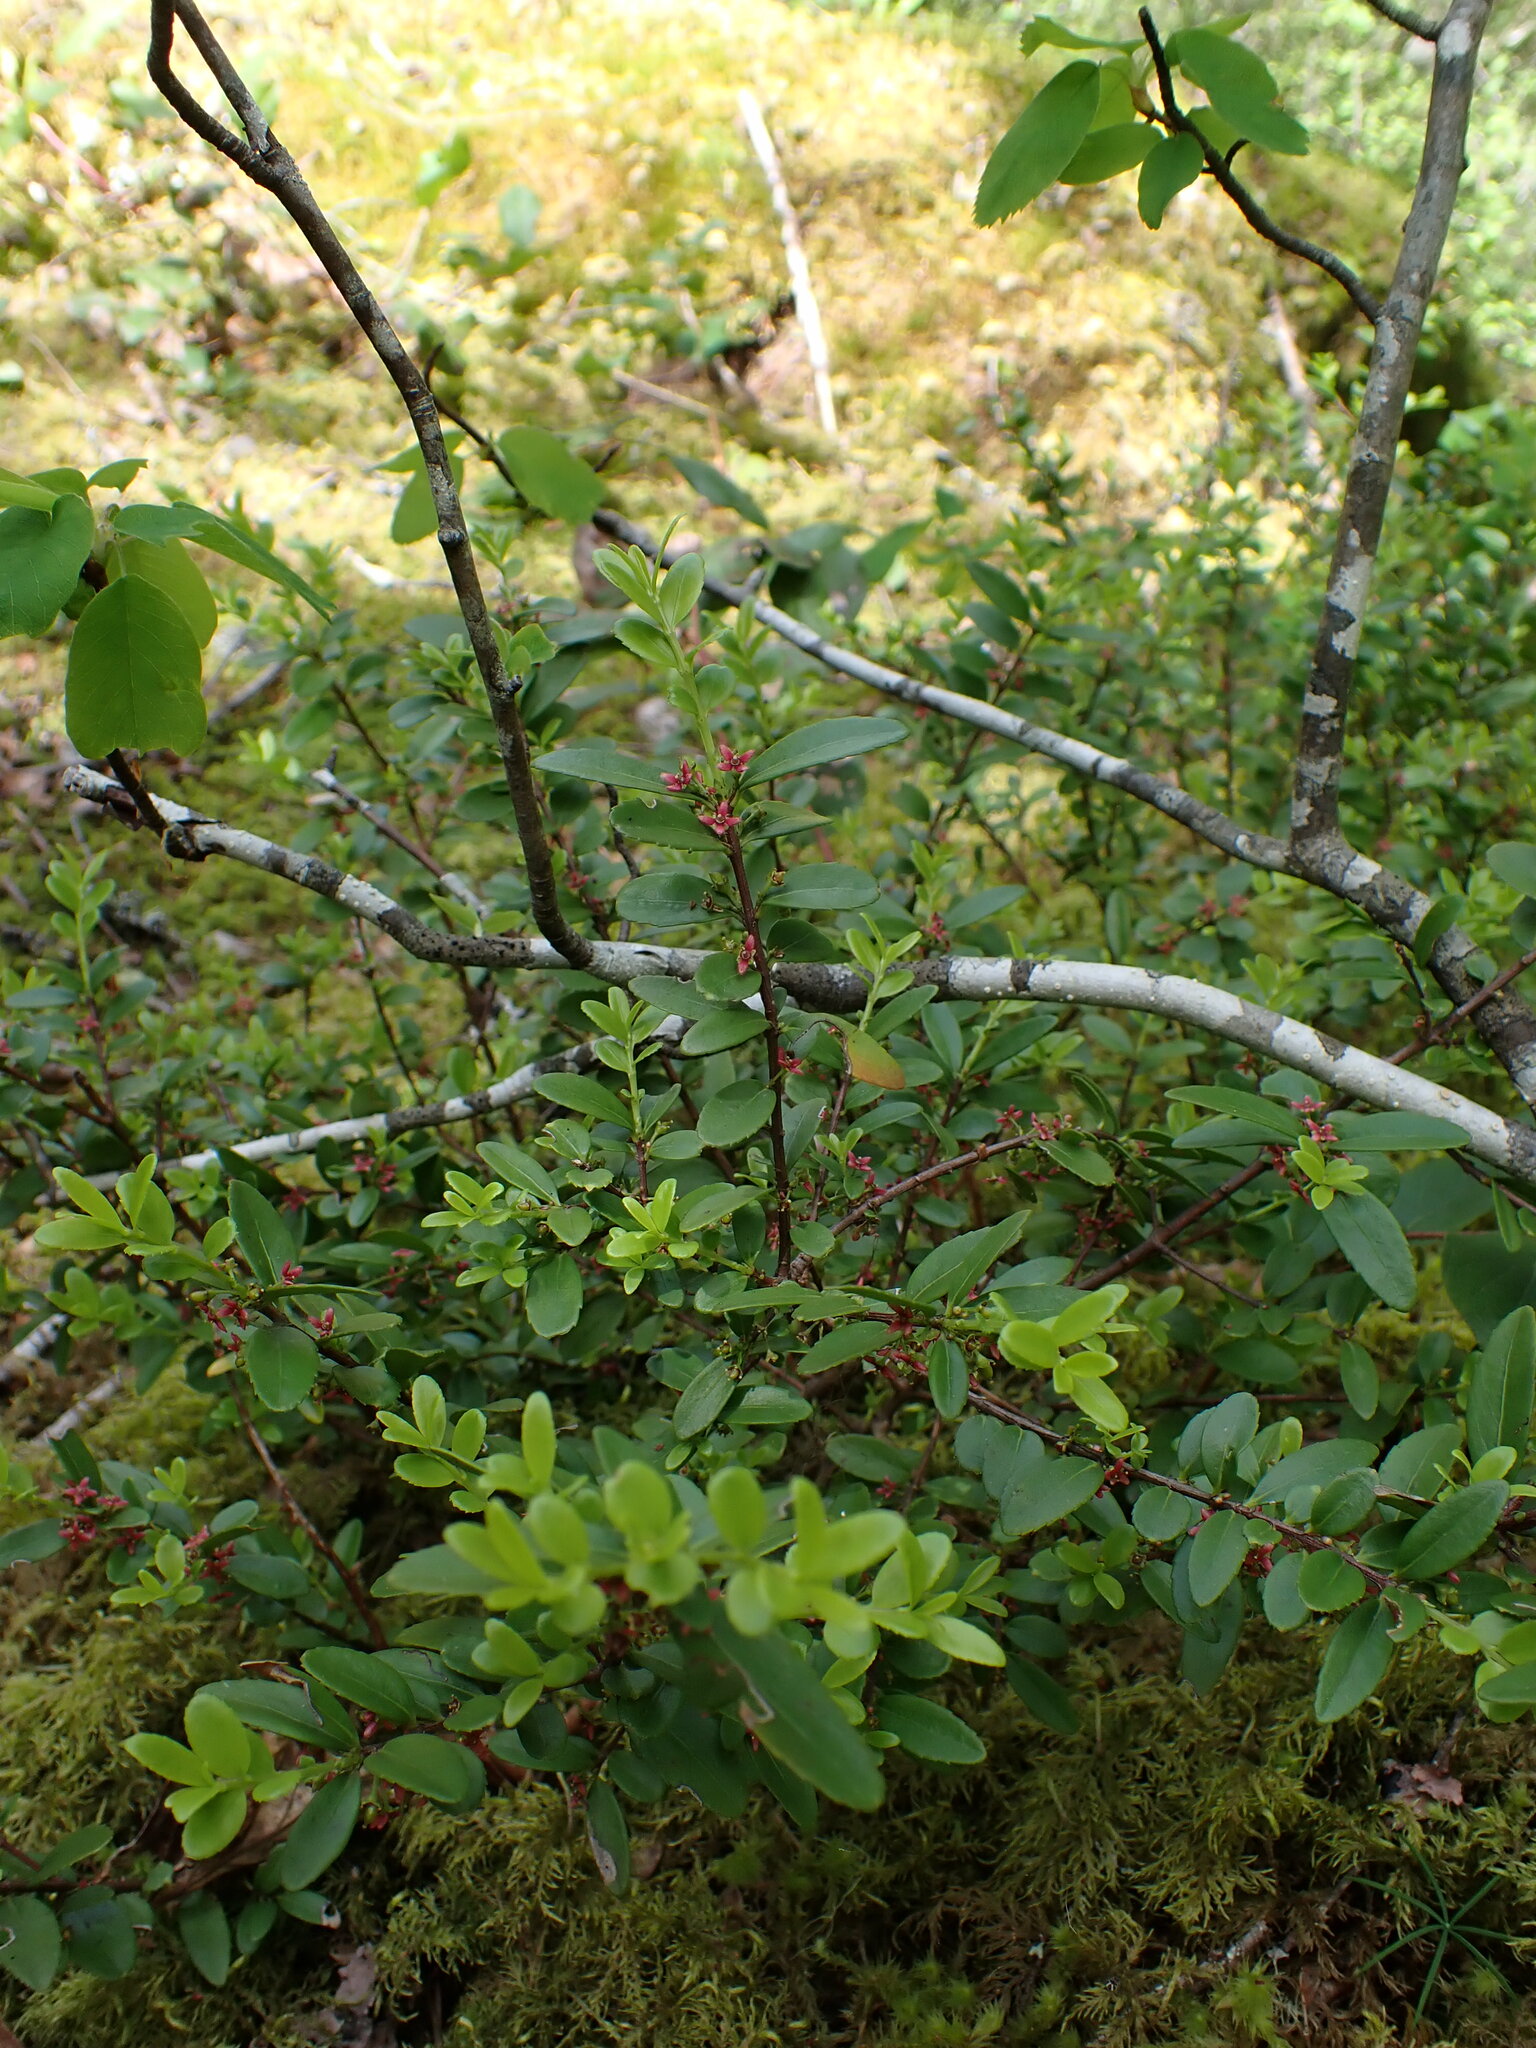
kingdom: Plantae
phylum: Tracheophyta
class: Magnoliopsida
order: Celastrales
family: Celastraceae
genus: Paxistima
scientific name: Paxistima myrsinites
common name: Mountain-lover
